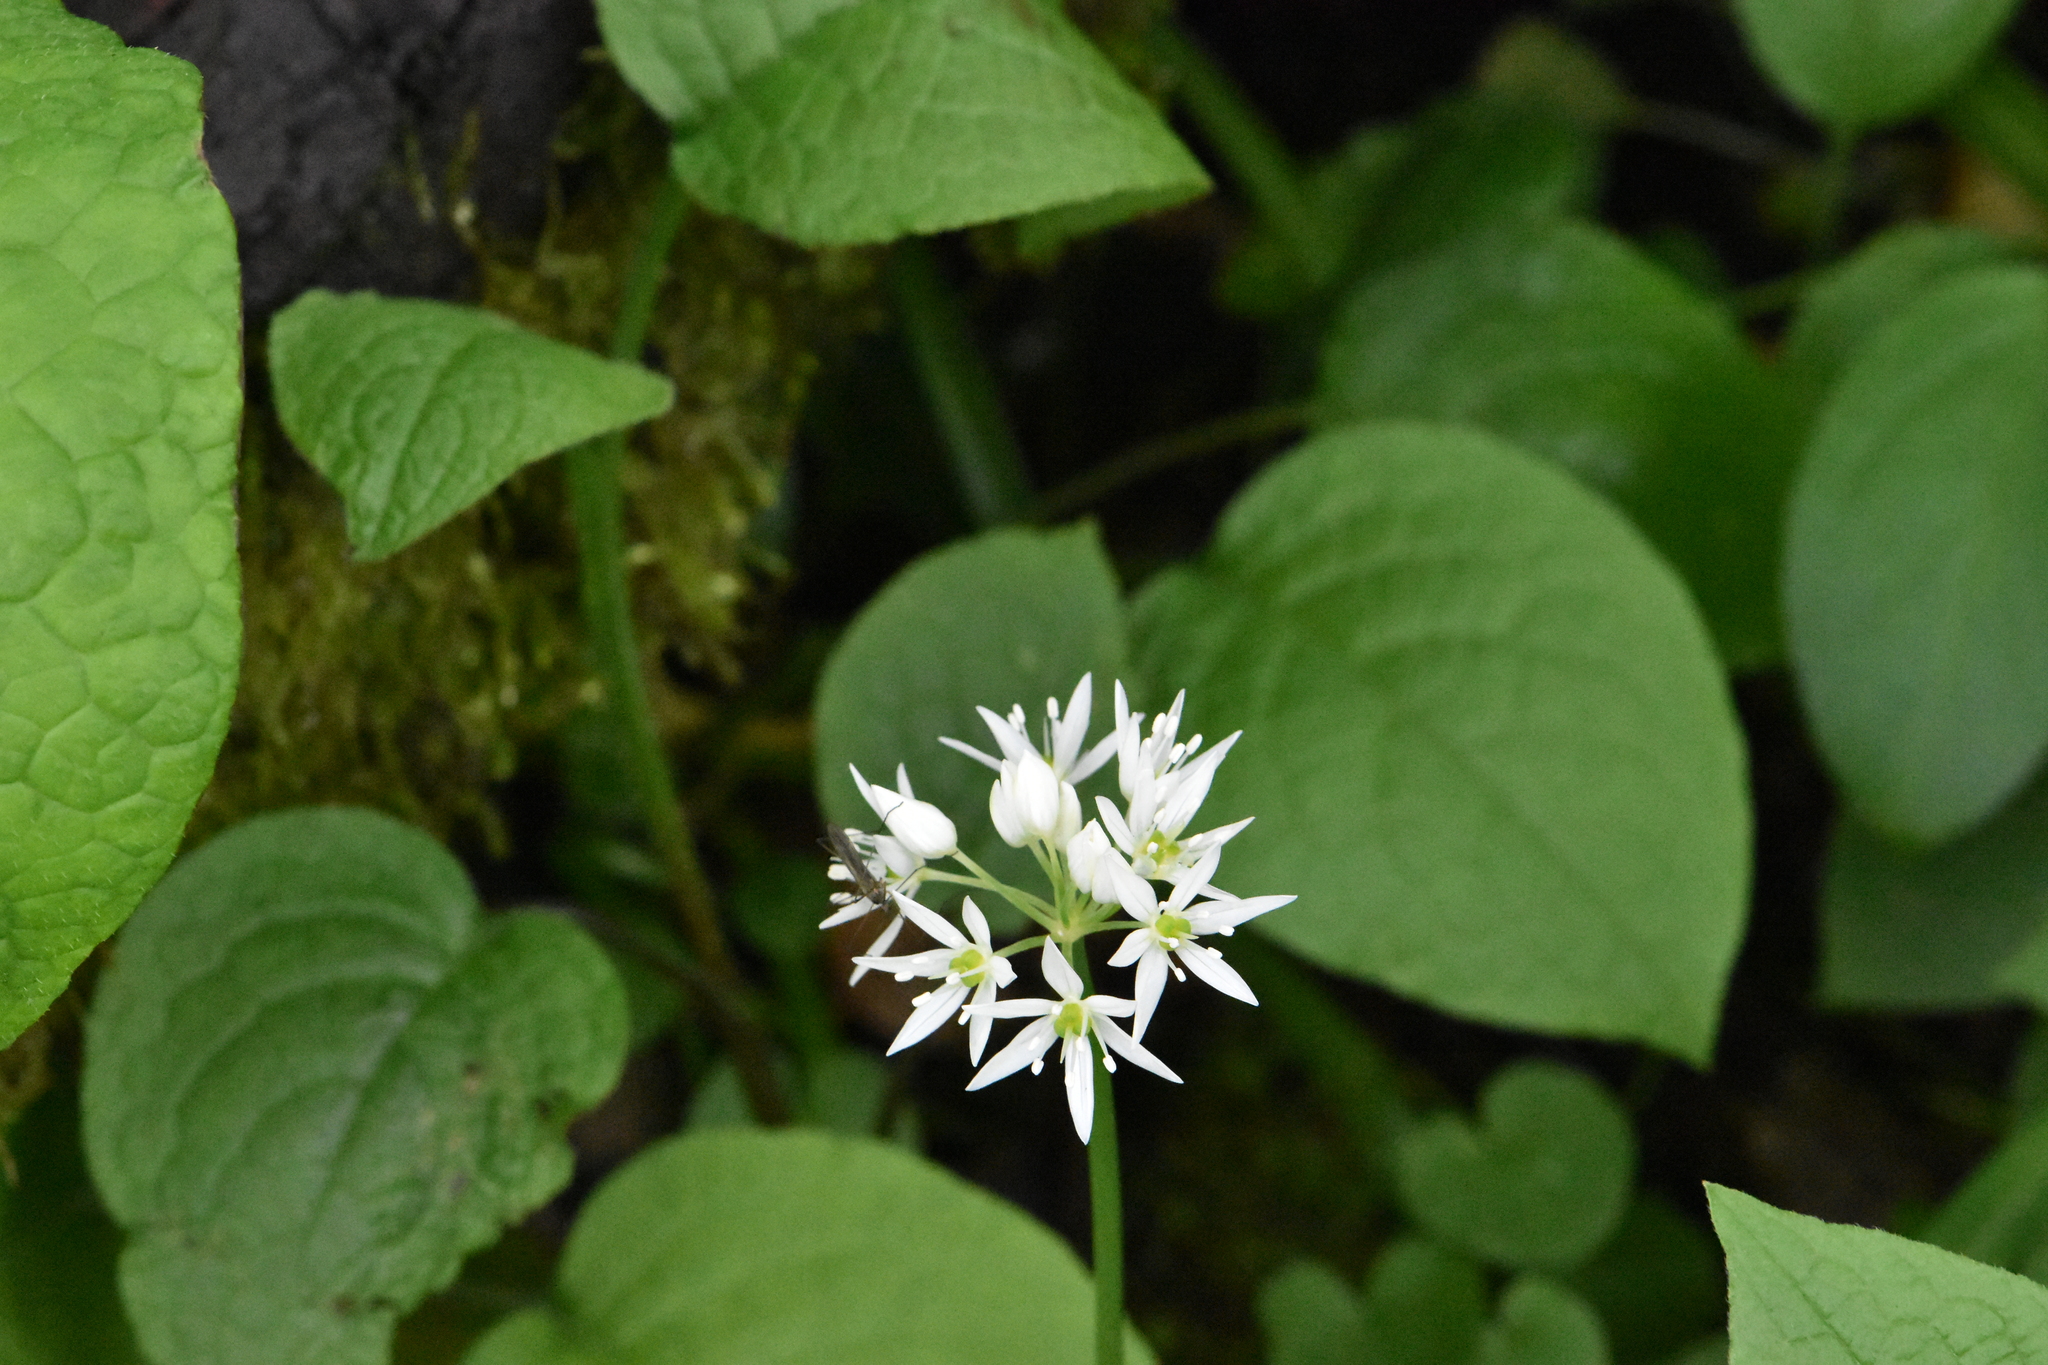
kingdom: Plantae
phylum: Tracheophyta
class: Liliopsida
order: Asparagales
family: Amaryllidaceae
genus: Allium
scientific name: Allium ursinum
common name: Ramsons
